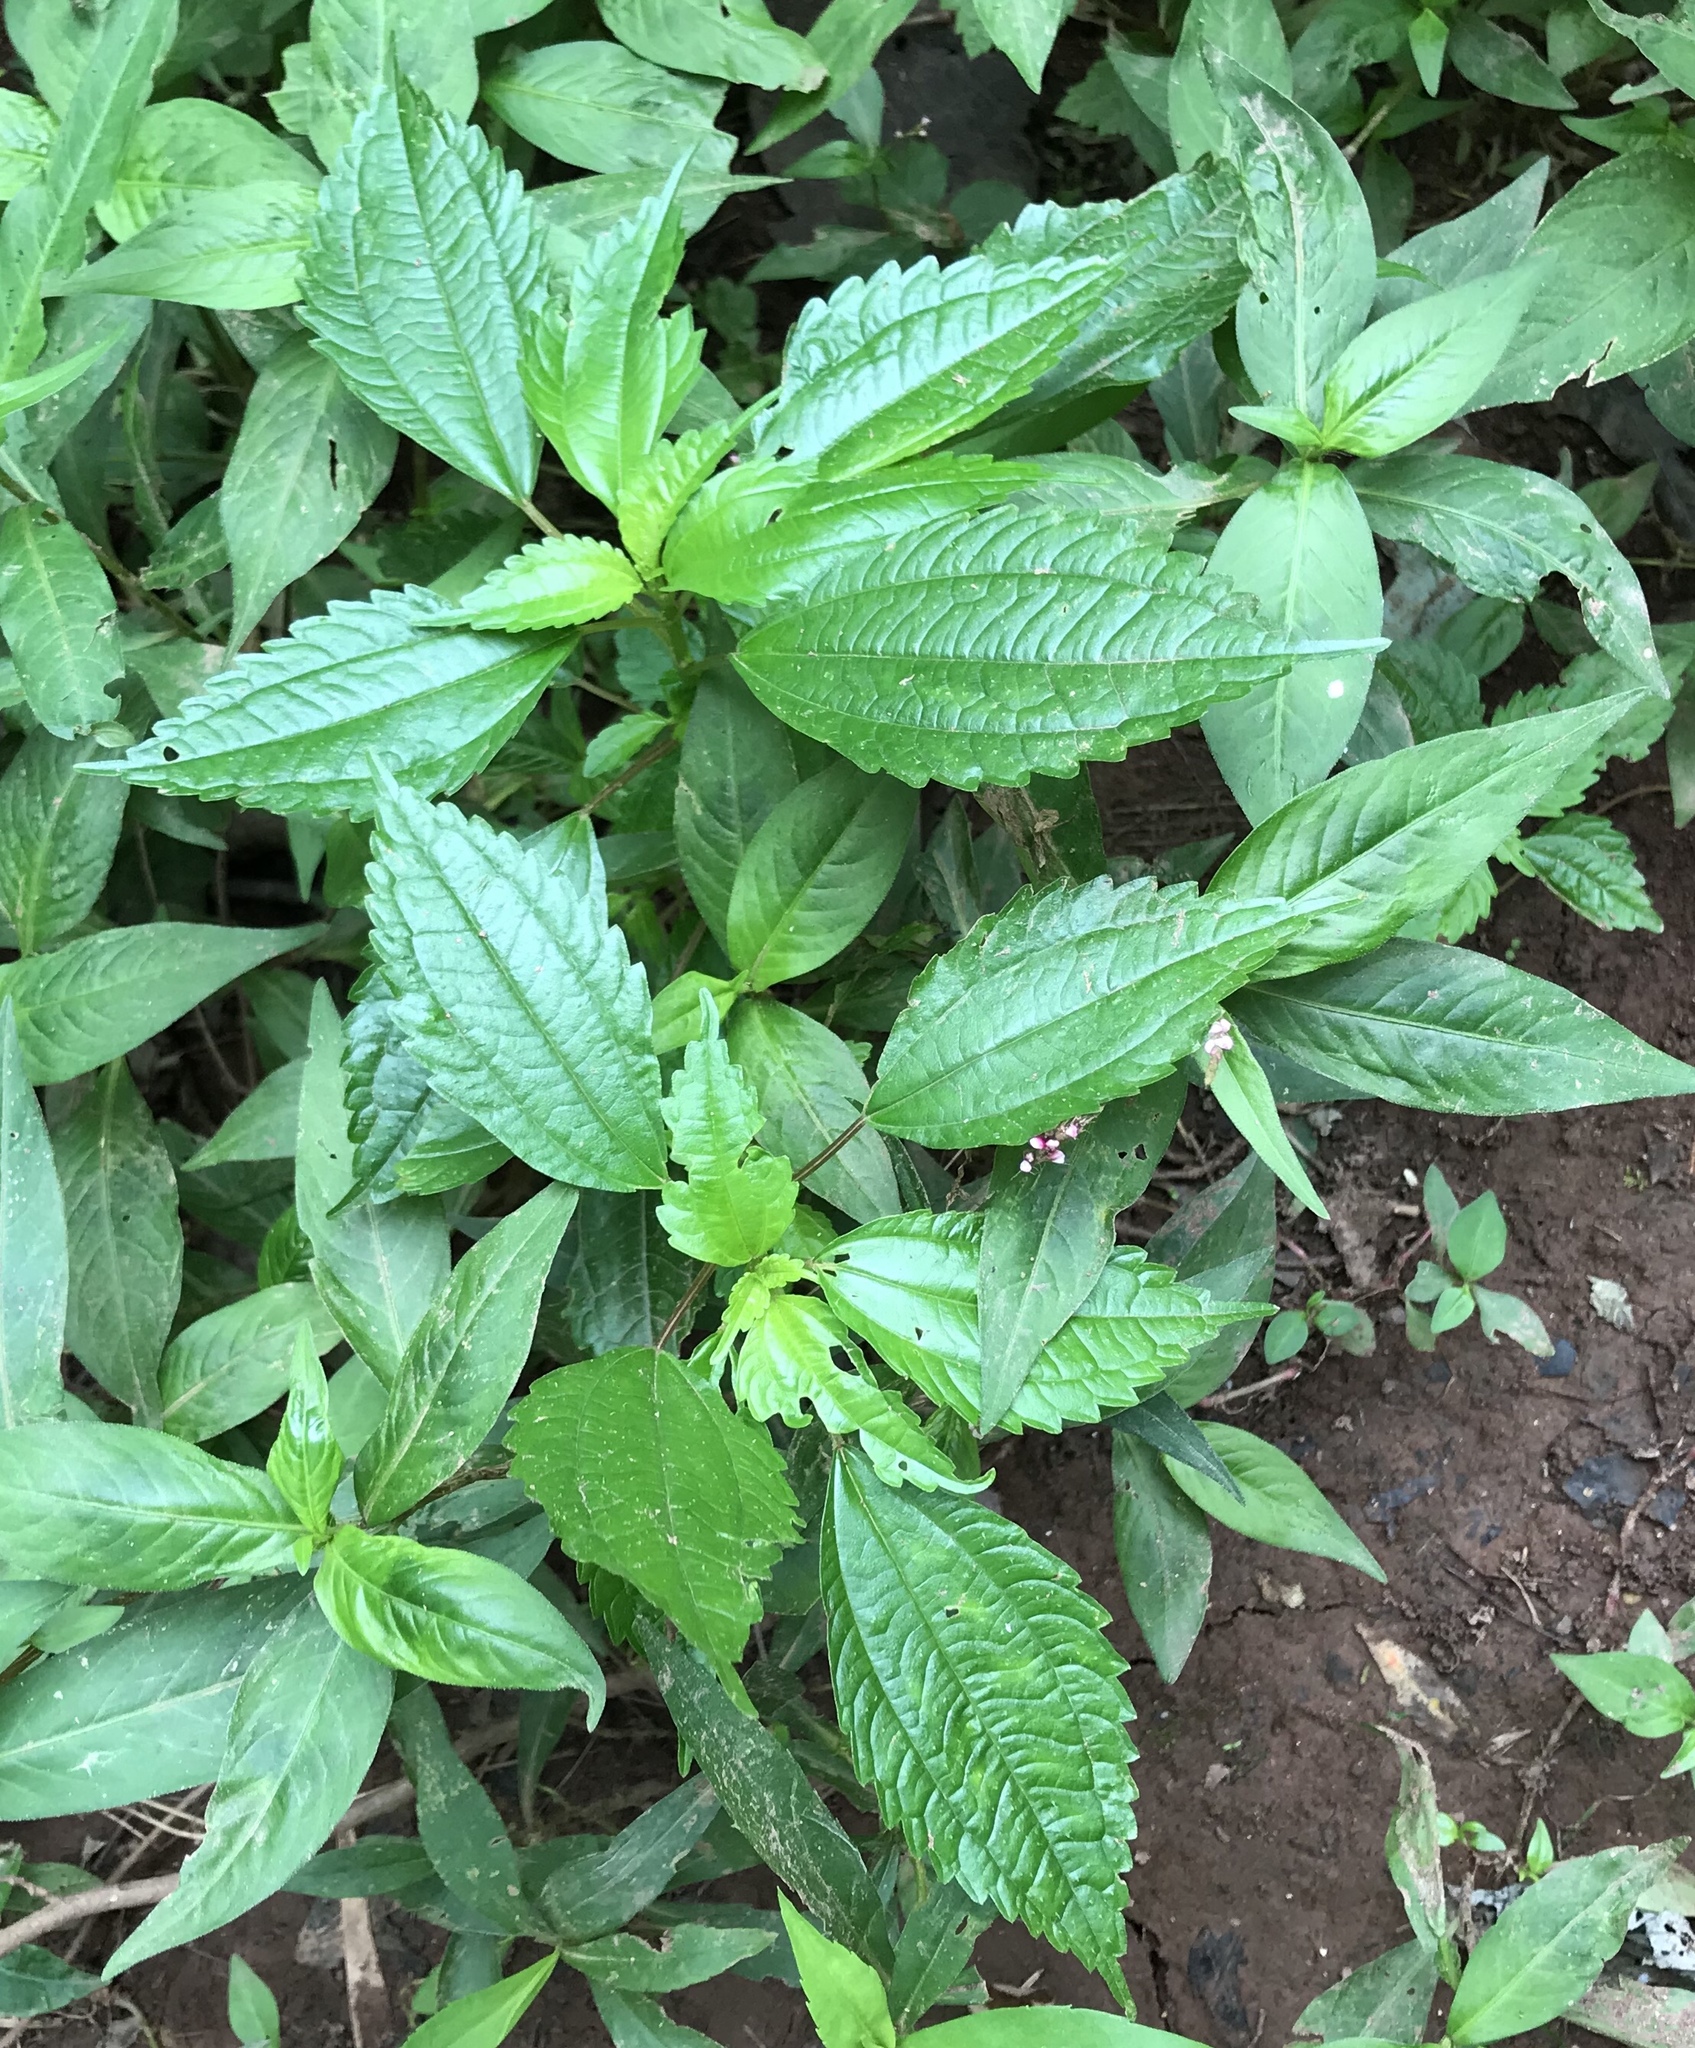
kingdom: Plantae
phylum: Tracheophyta
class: Magnoliopsida
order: Rosales
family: Urticaceae
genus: Pilea
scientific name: Pilea pumila
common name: Clearweed
